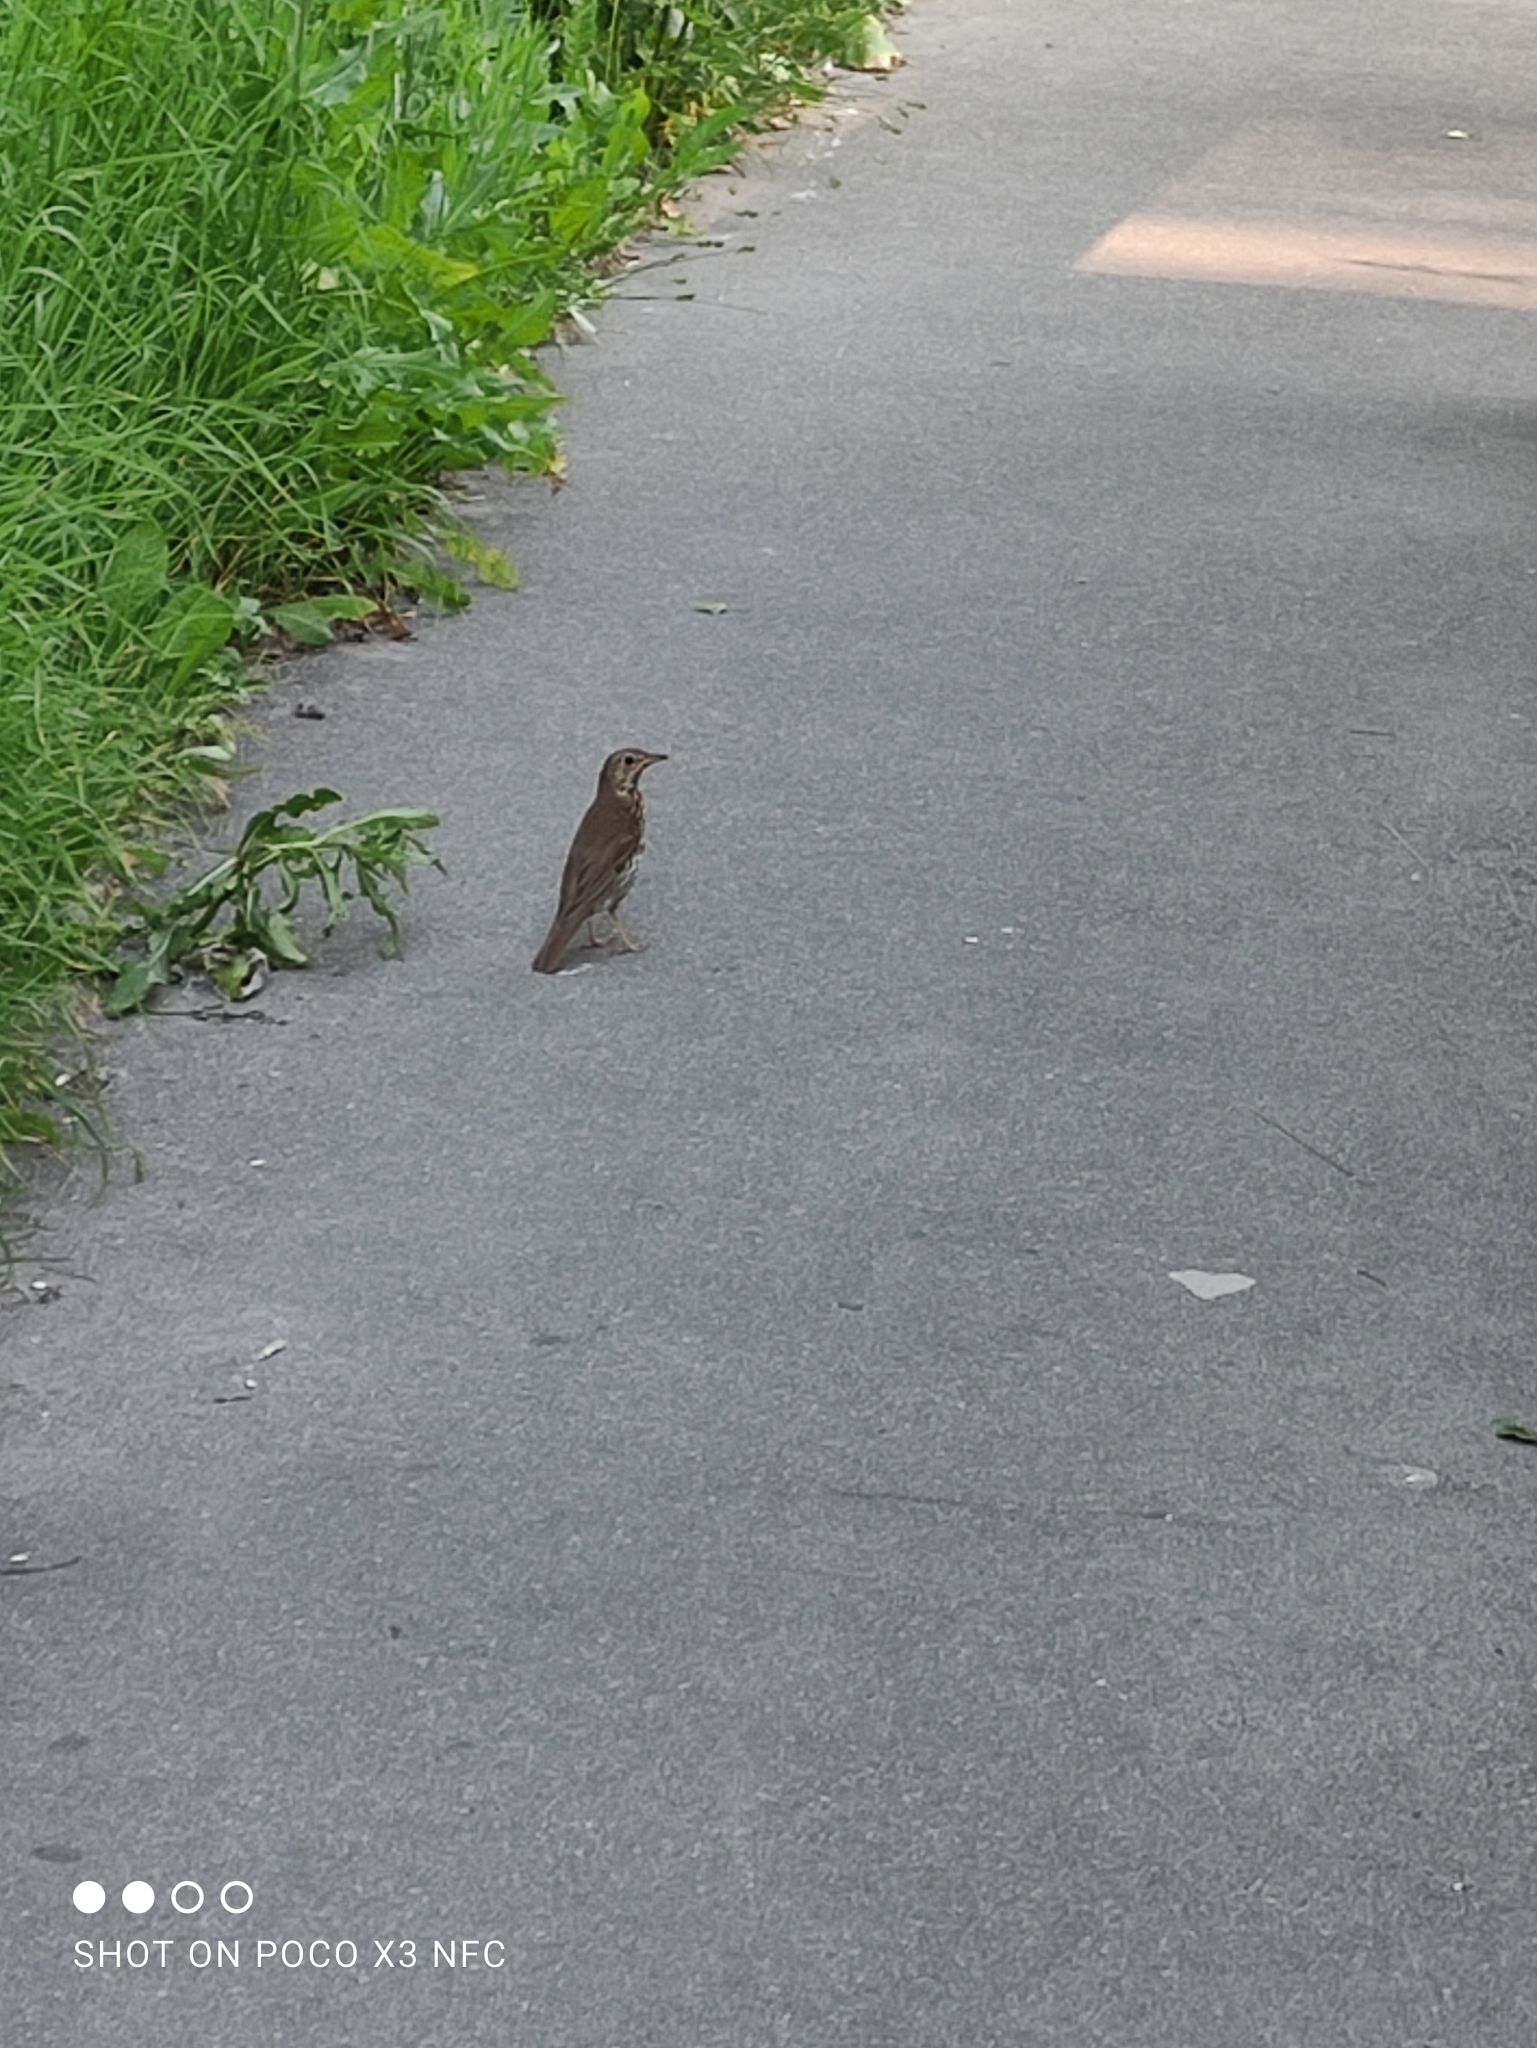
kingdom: Animalia
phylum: Chordata
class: Aves
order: Passeriformes
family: Turdidae
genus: Turdus
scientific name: Turdus pilaris
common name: Fieldfare
